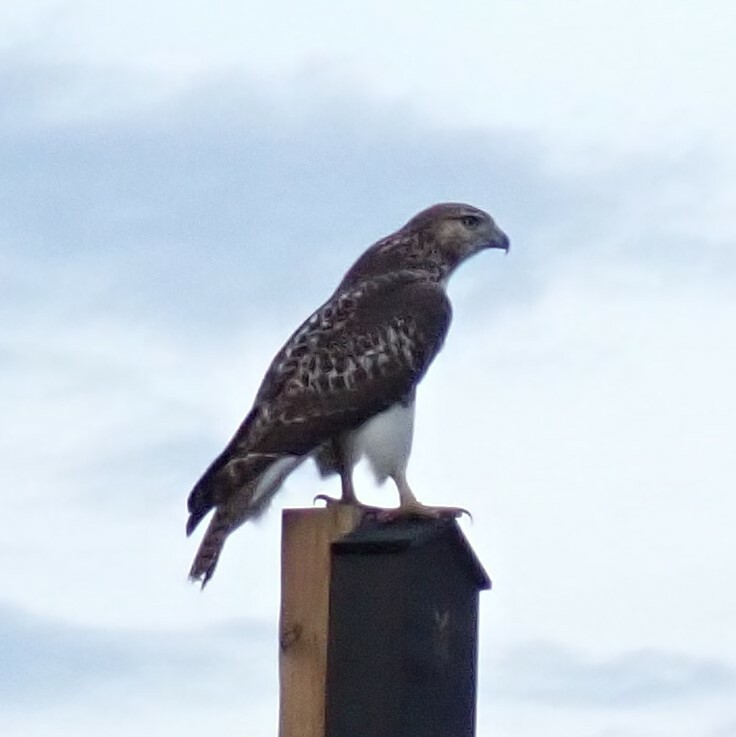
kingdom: Animalia
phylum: Chordata
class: Aves
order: Accipitriformes
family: Accipitridae
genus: Buteo
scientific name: Buteo jamaicensis
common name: Red-tailed hawk
